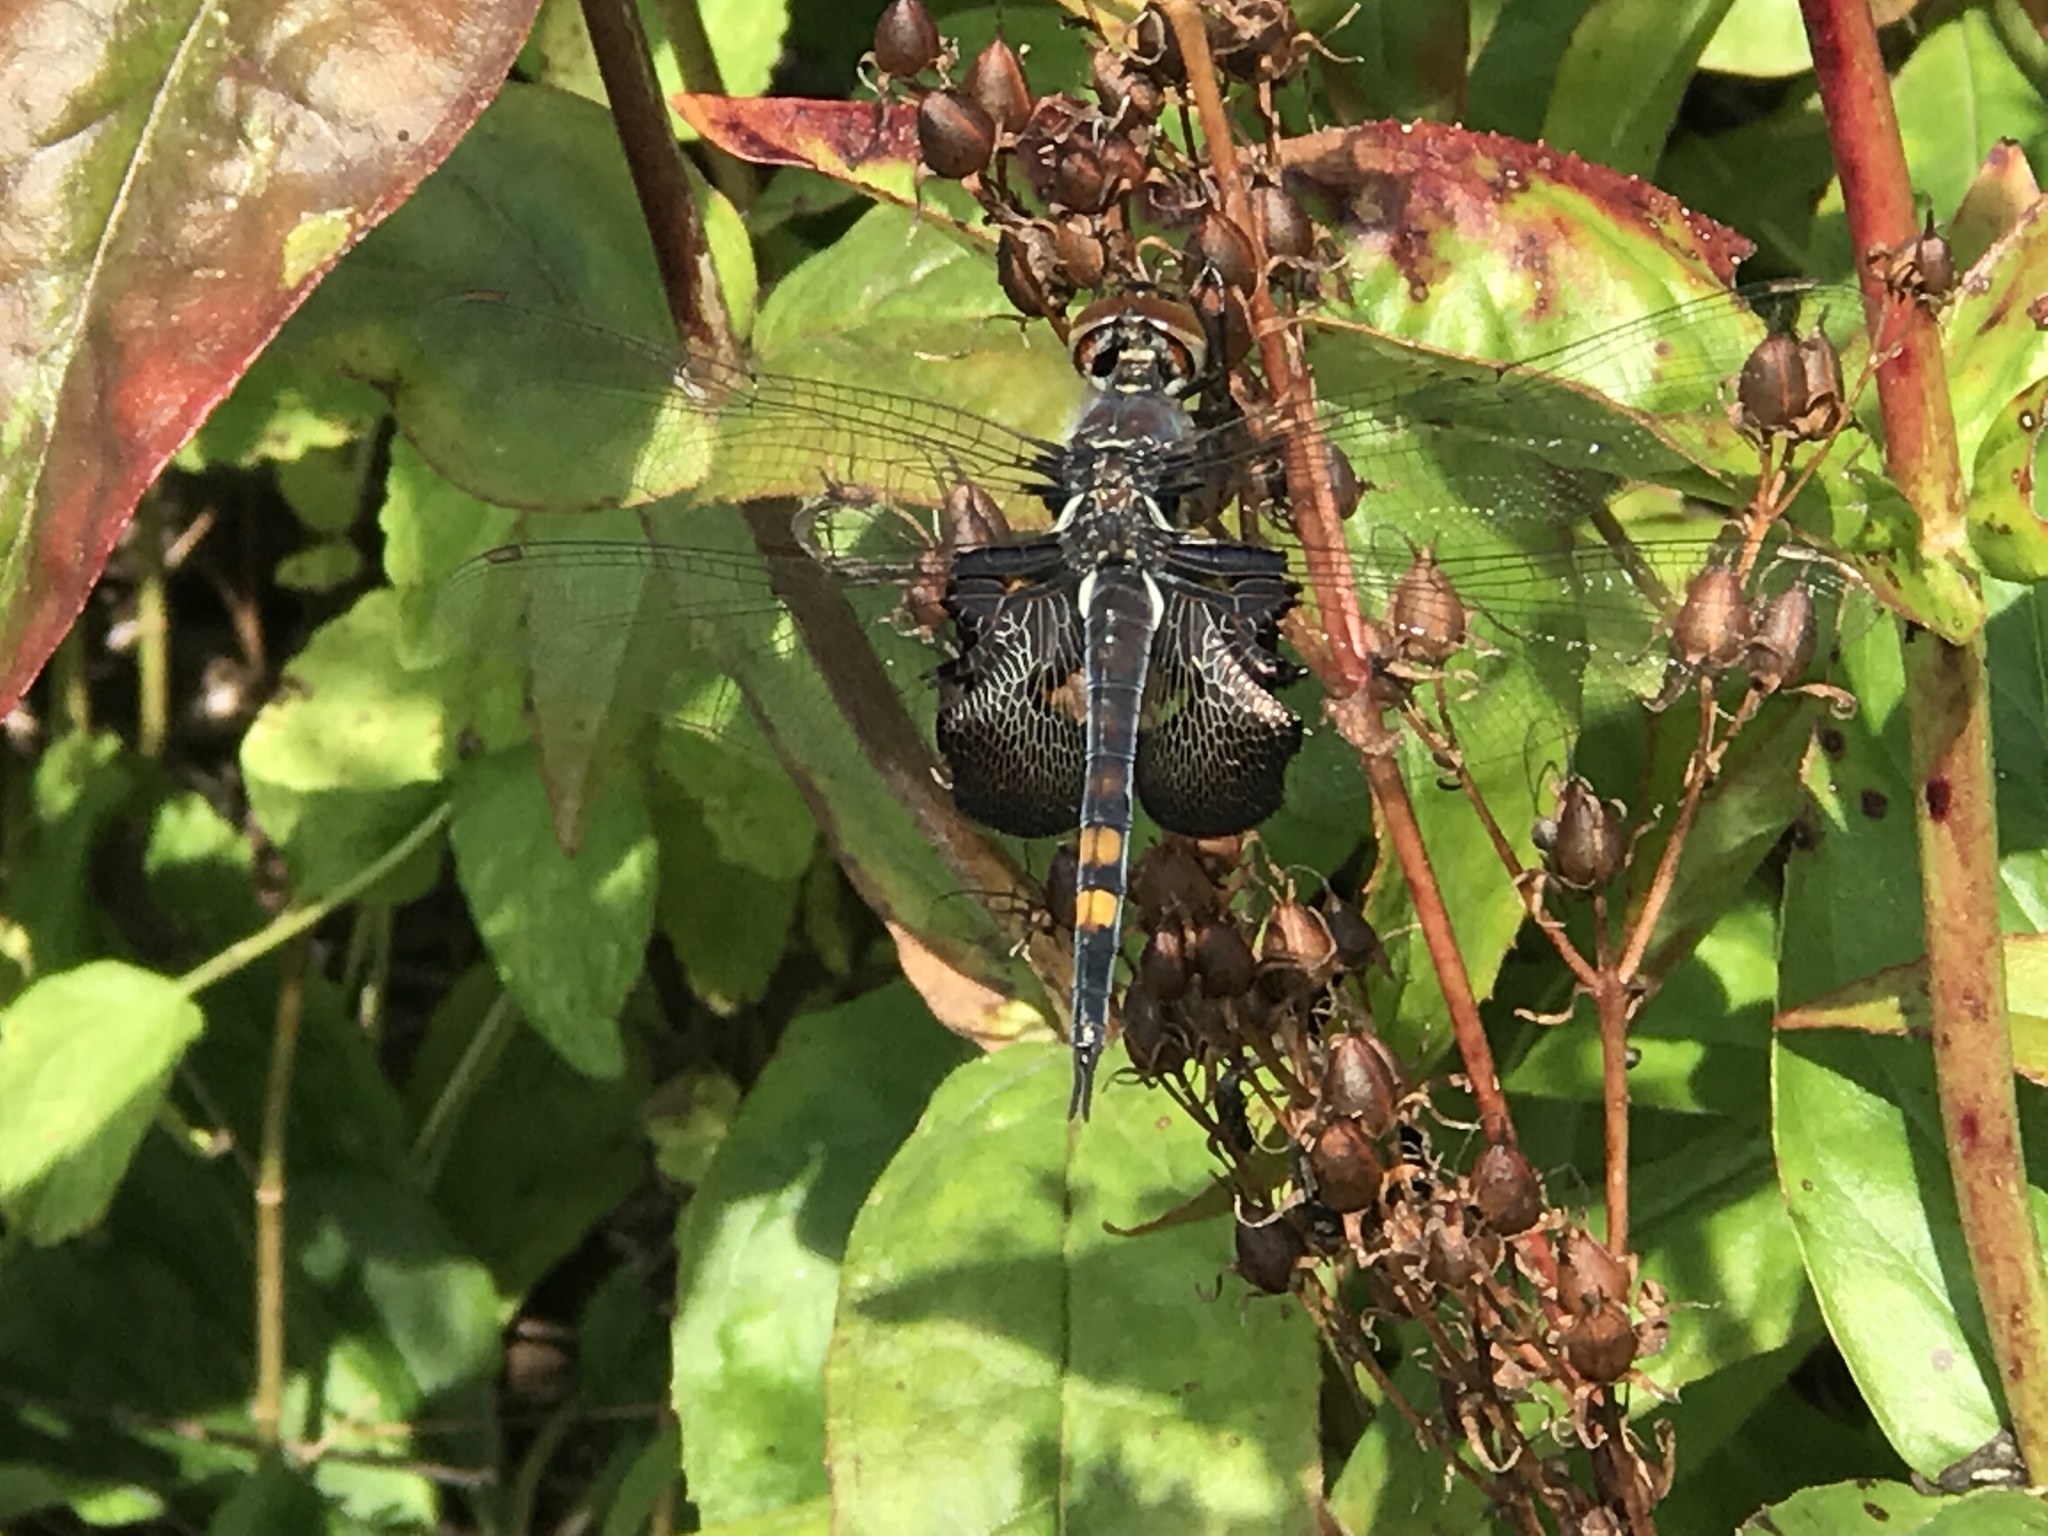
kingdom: Animalia
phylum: Arthropoda
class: Insecta
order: Odonata
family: Libellulidae
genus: Tramea
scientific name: Tramea lacerata
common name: Black saddlebags
